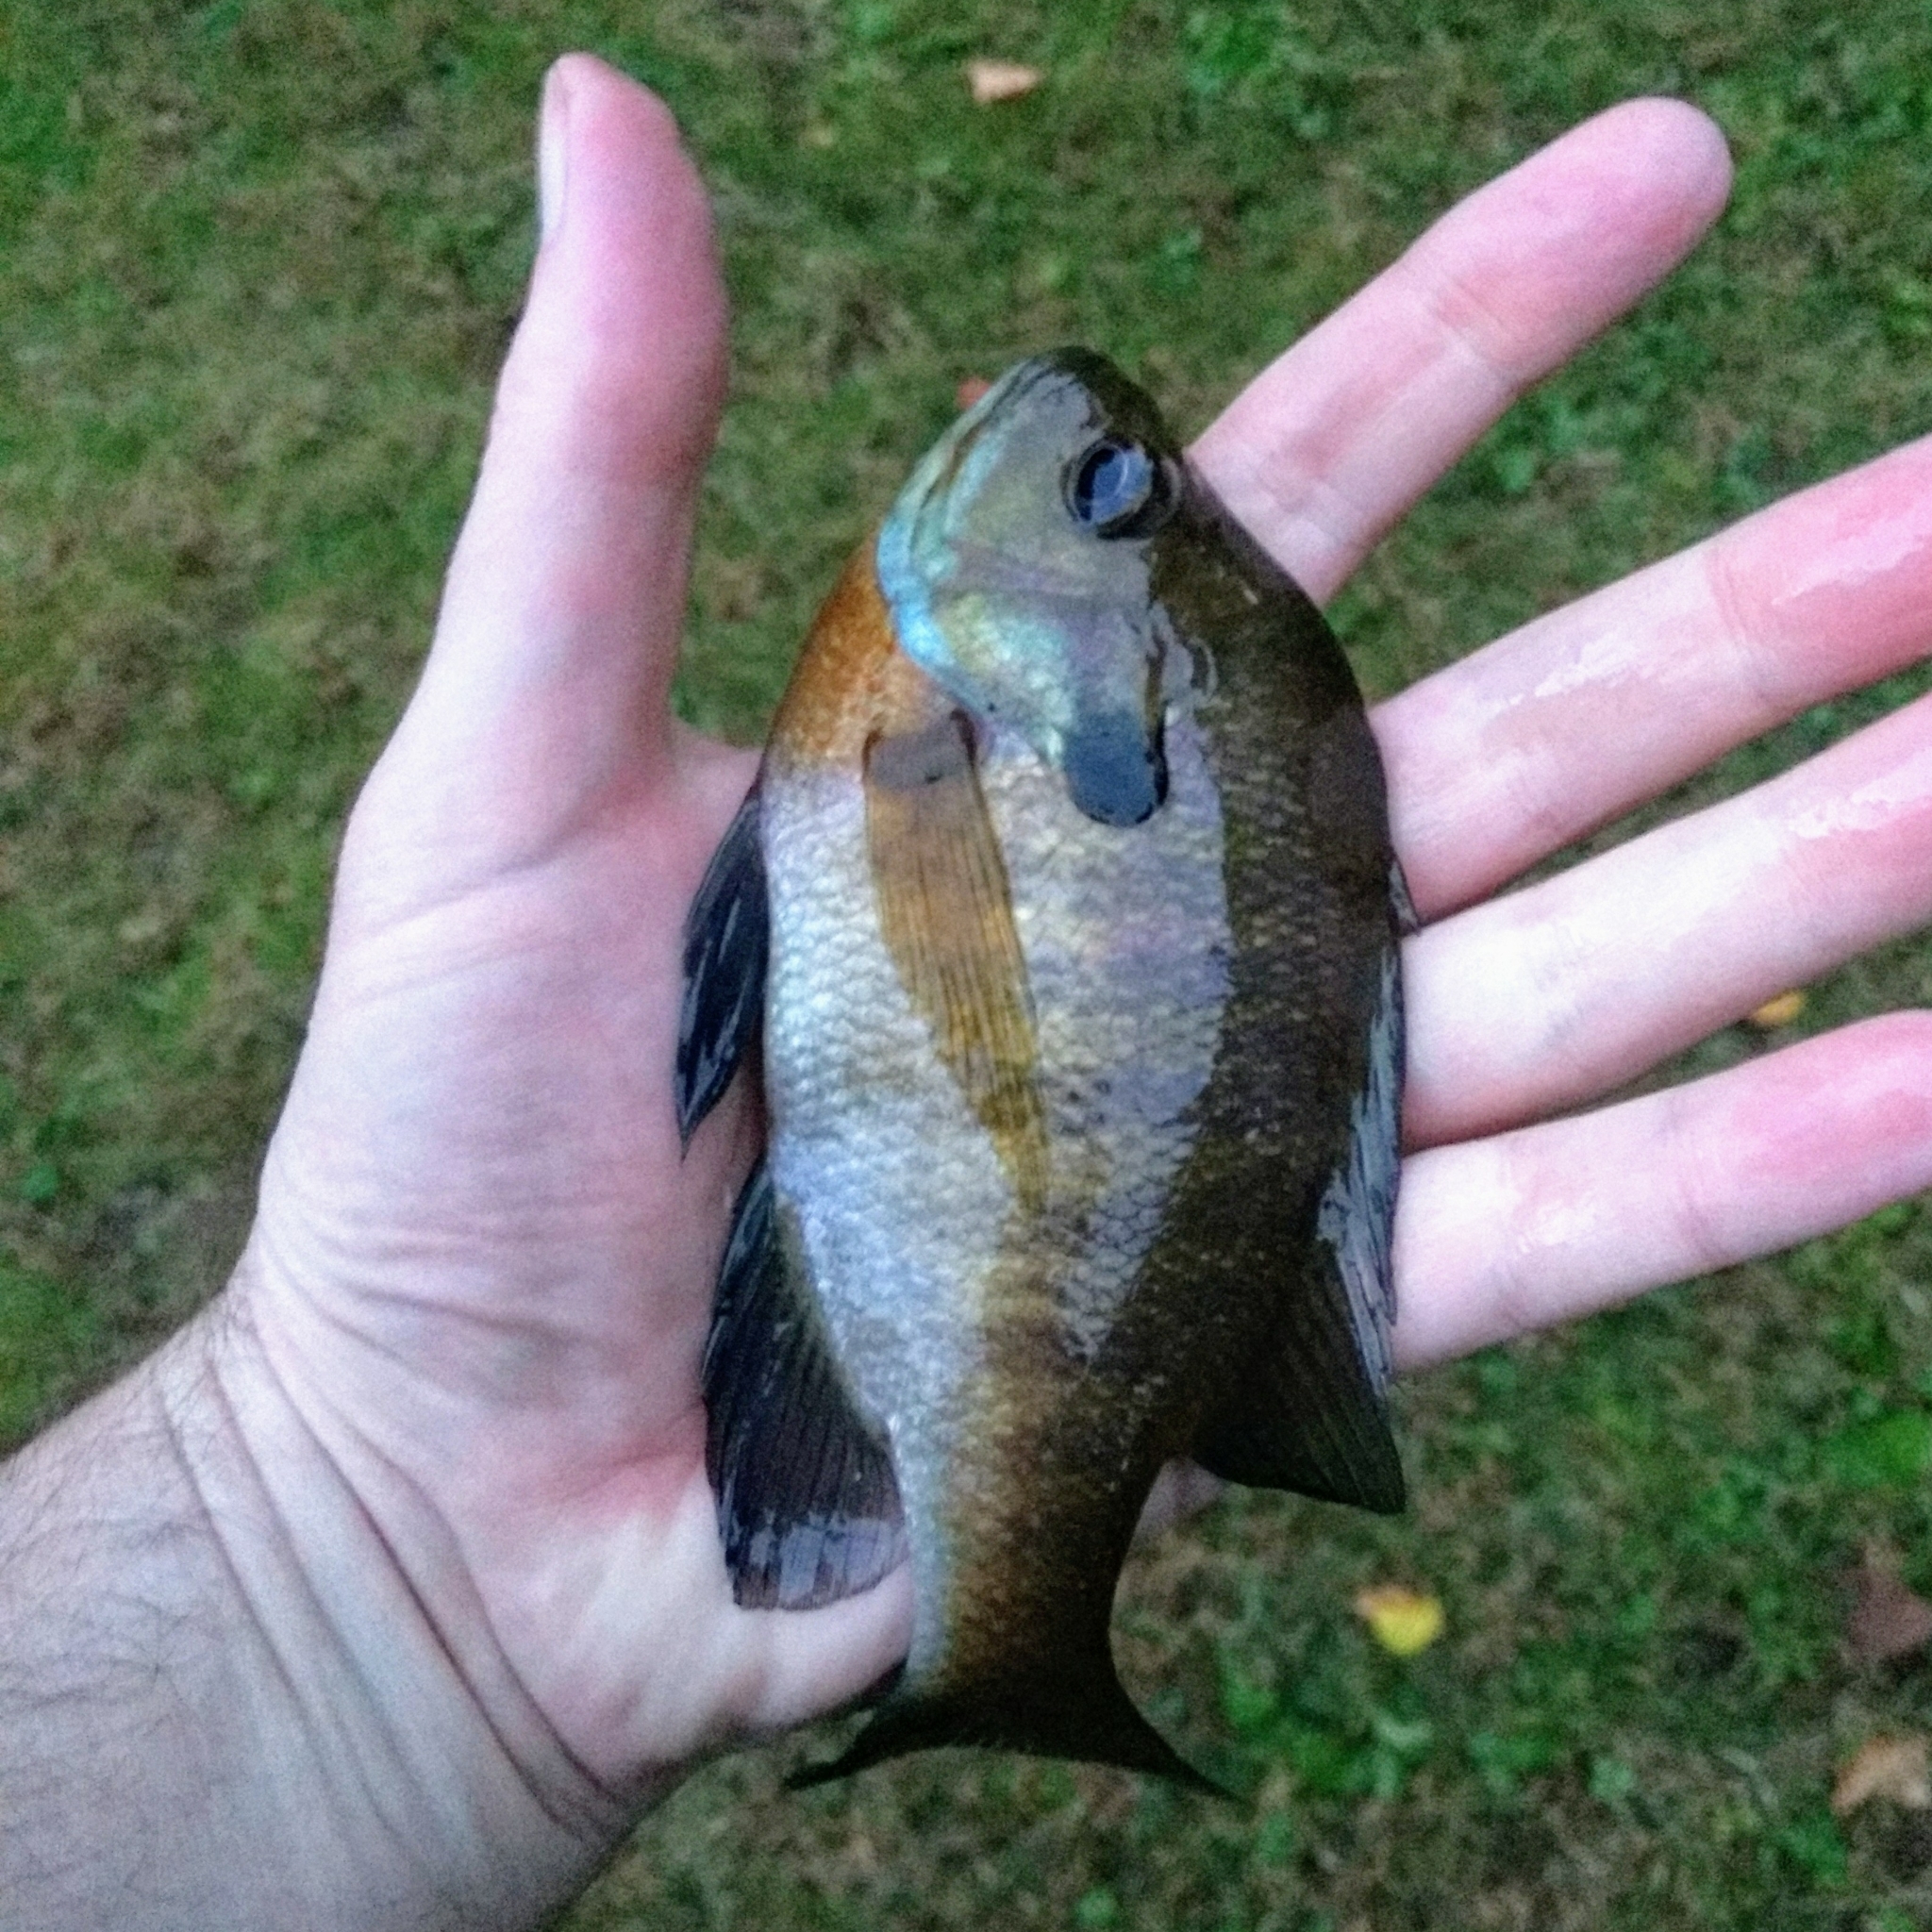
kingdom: Animalia
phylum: Chordata
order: Perciformes
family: Centrarchidae
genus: Lepomis
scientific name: Lepomis macrochirus
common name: Bluegill
